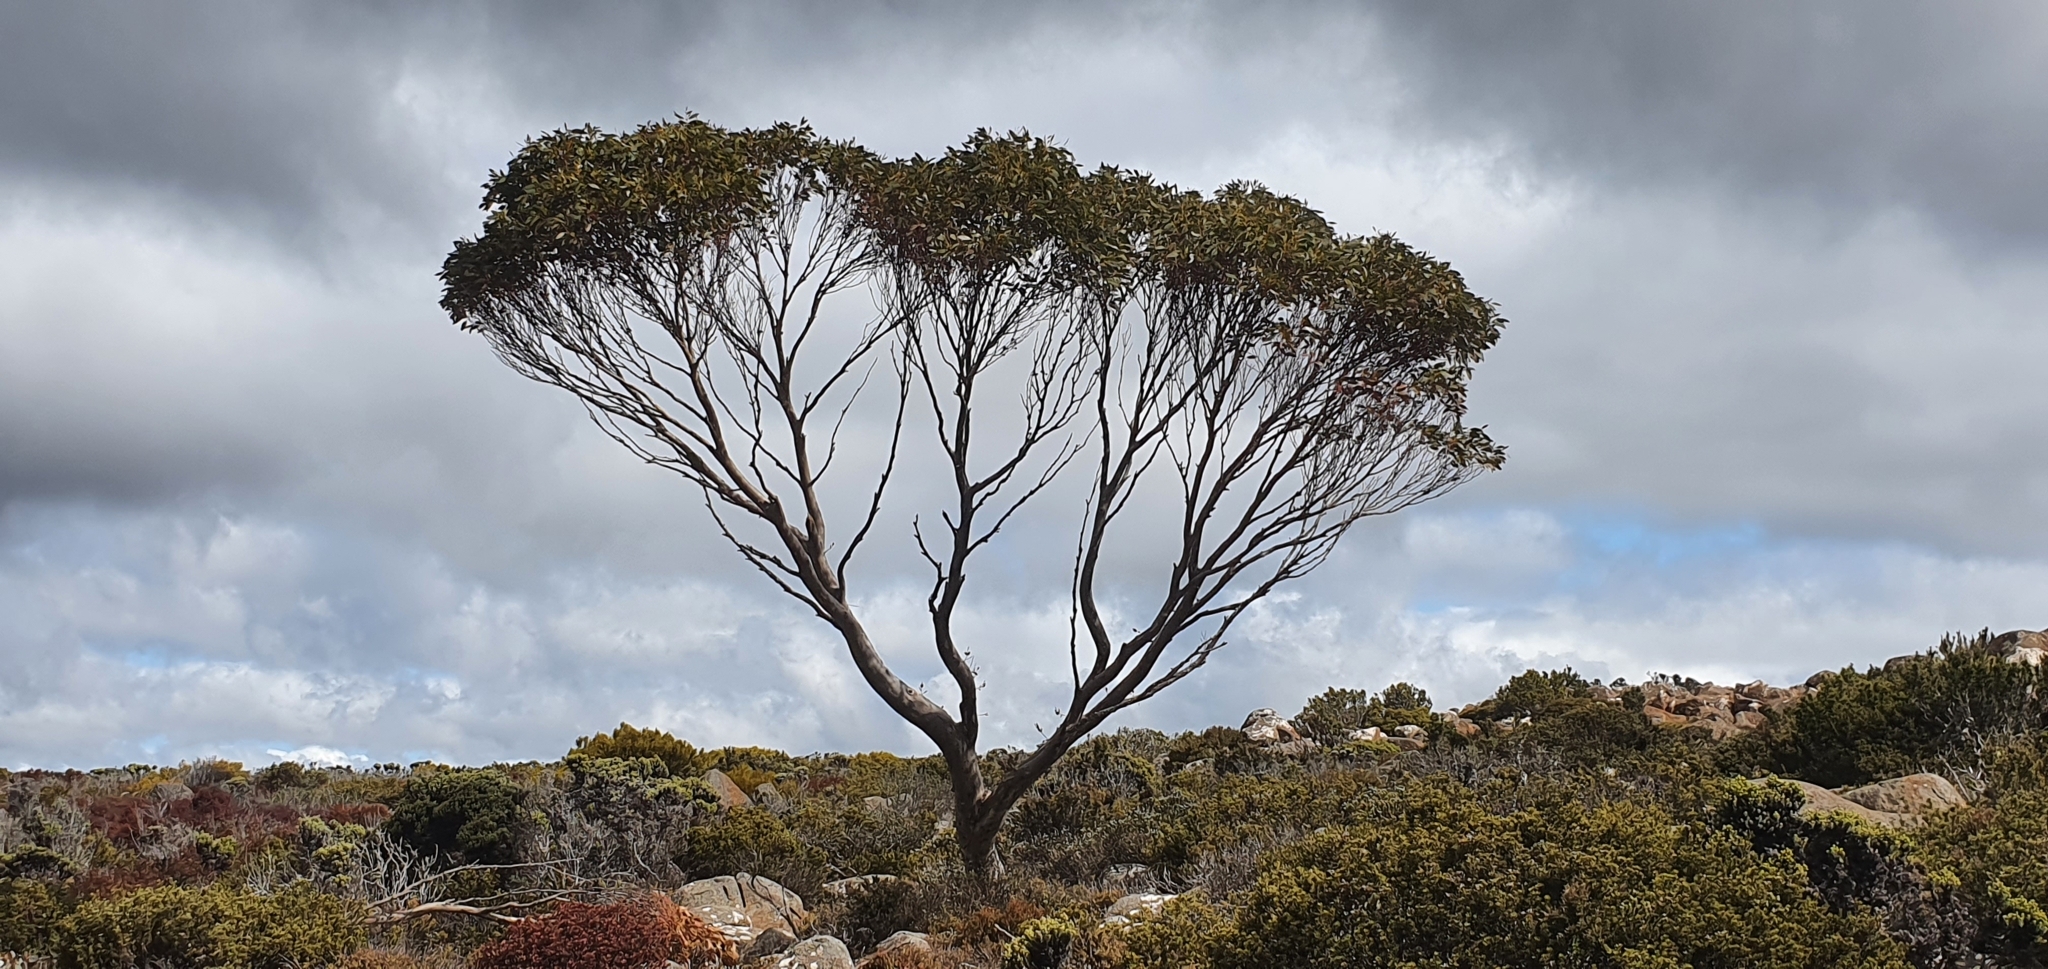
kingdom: Plantae
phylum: Tracheophyta
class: Magnoliopsida
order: Myrtales
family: Myrtaceae
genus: Eucalyptus
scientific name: Eucalyptus coccifera
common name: Tasmanian snow-gum
